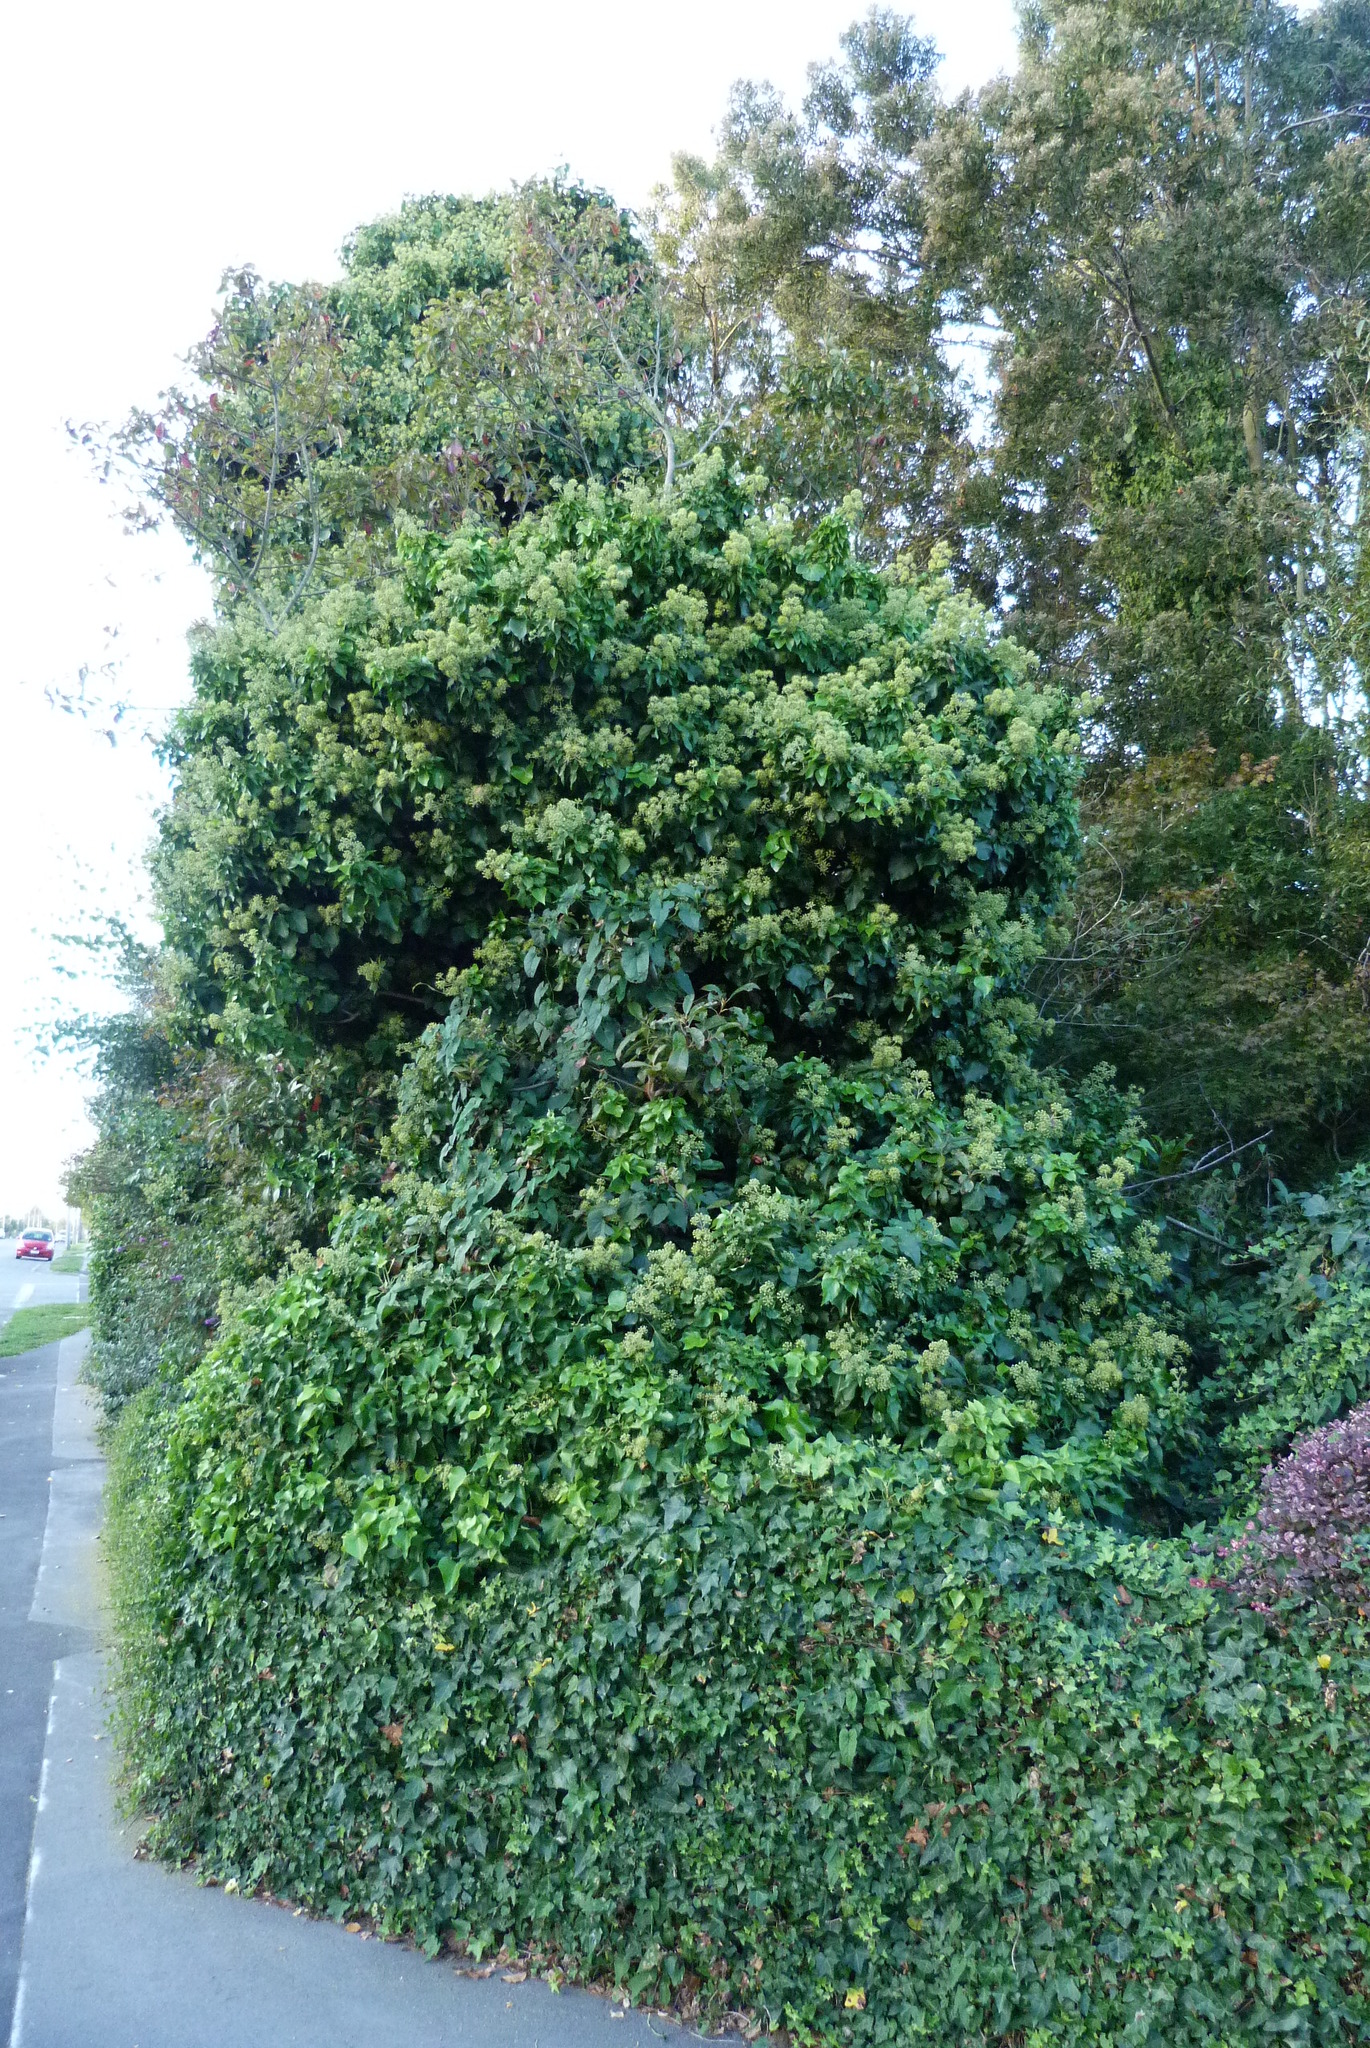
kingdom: Plantae
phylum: Tracheophyta
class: Magnoliopsida
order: Apiales
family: Araliaceae
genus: Hedera
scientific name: Hedera helix
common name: Ivy
